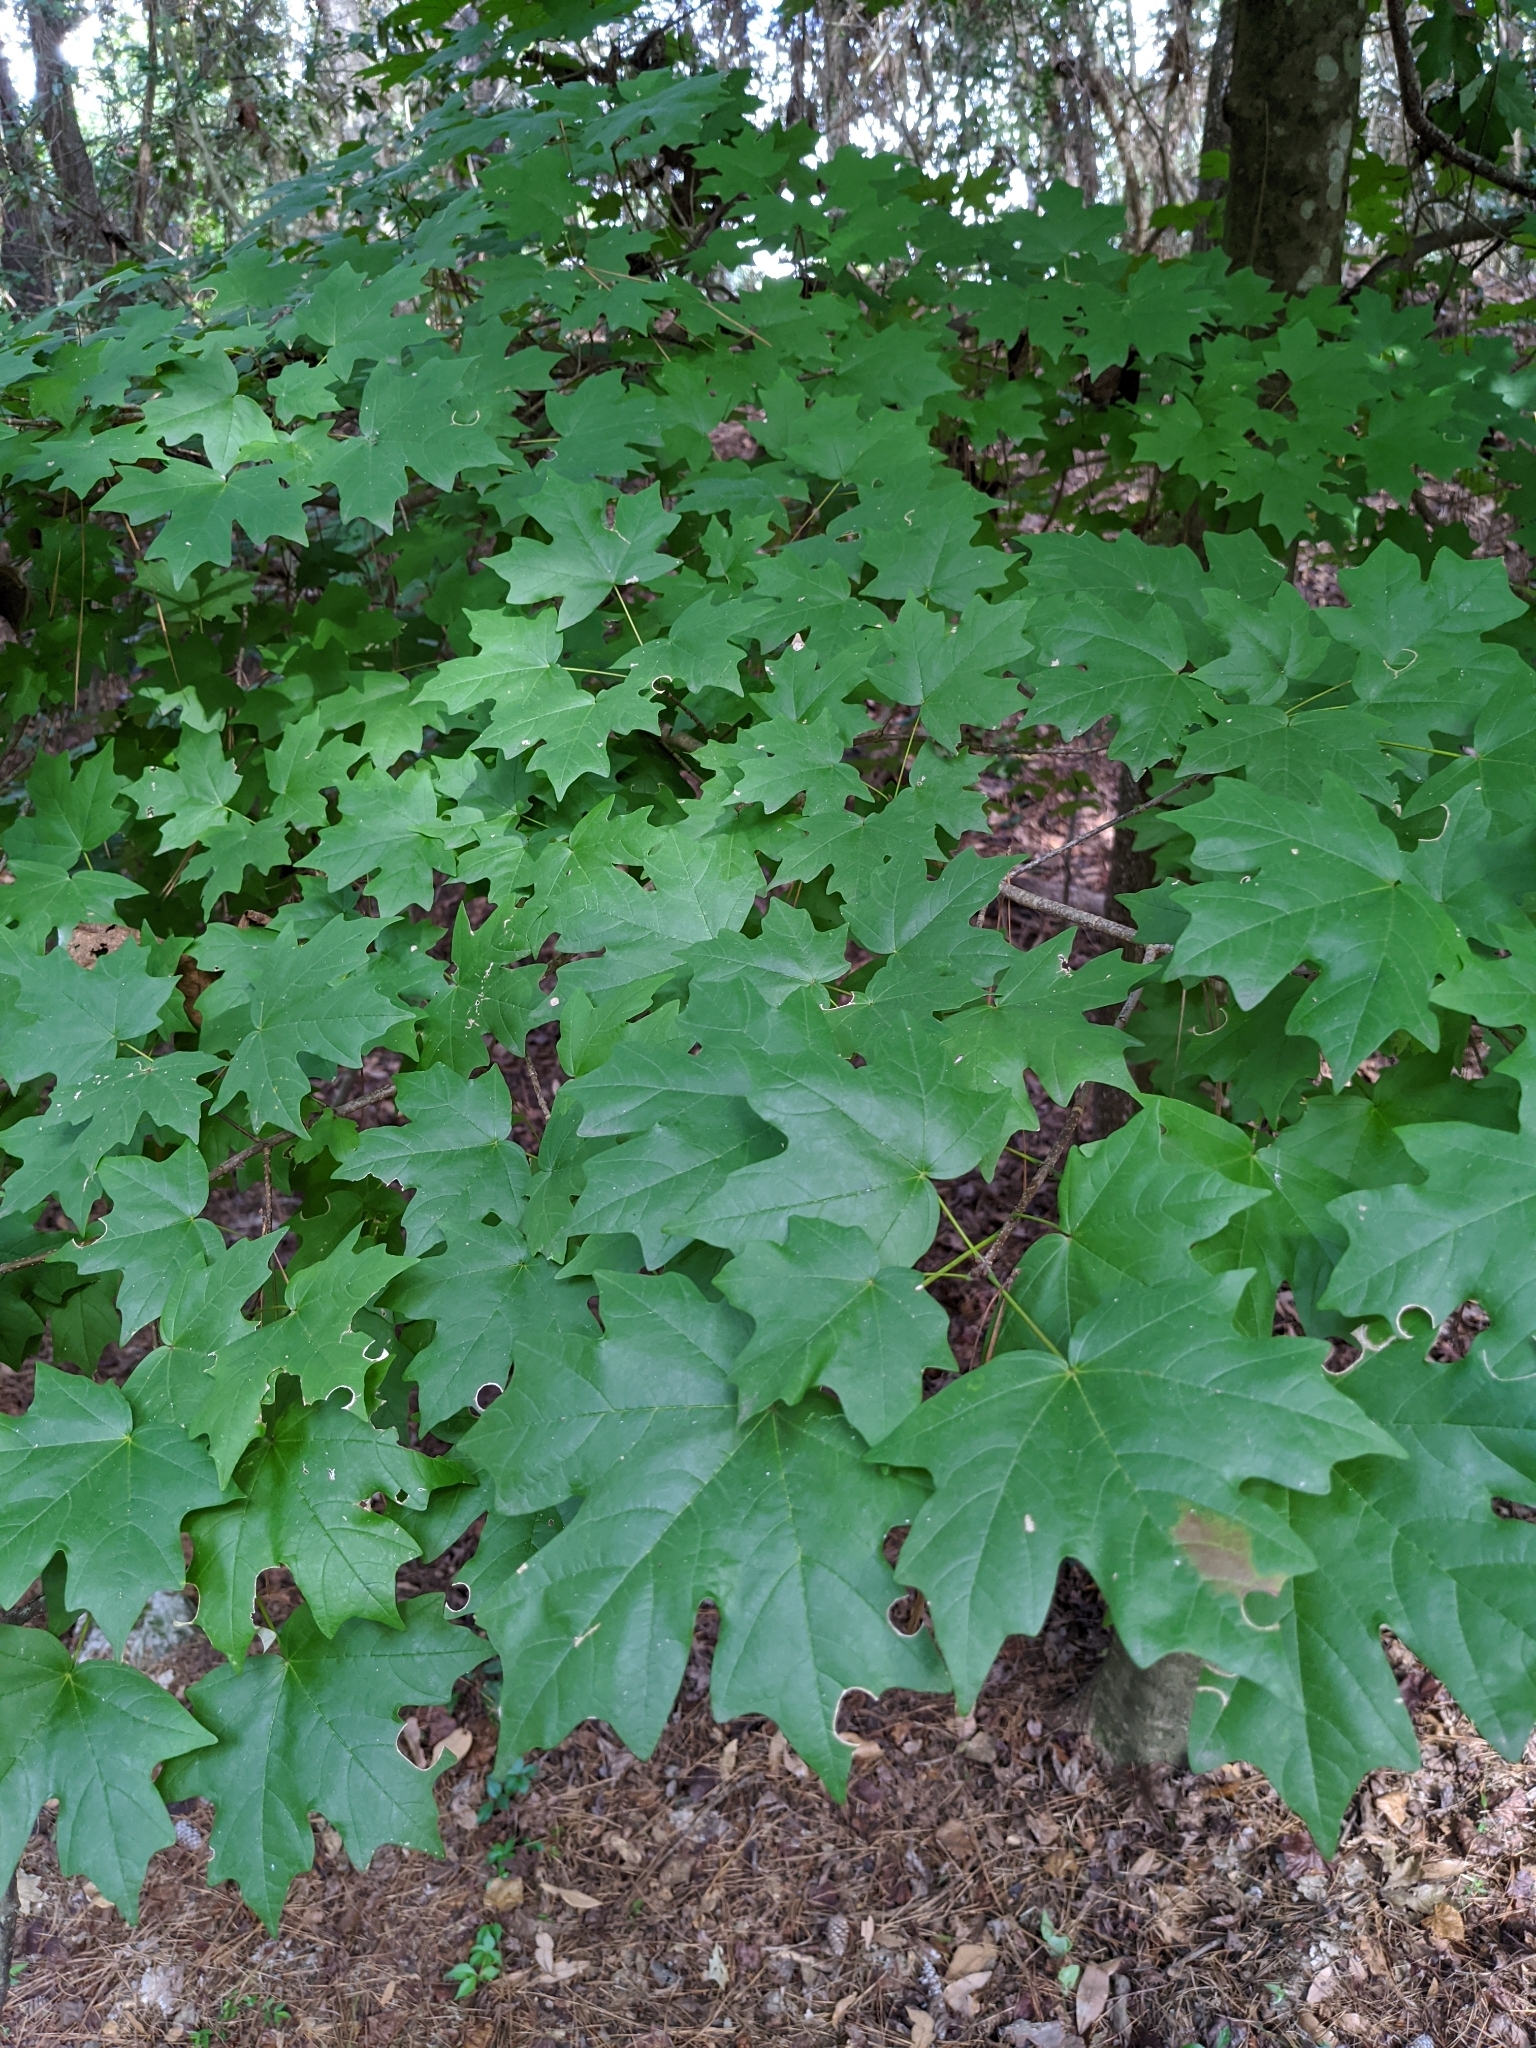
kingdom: Plantae
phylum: Tracheophyta
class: Magnoliopsida
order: Sapindales
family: Sapindaceae
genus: Acer
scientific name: Acer floridanum
